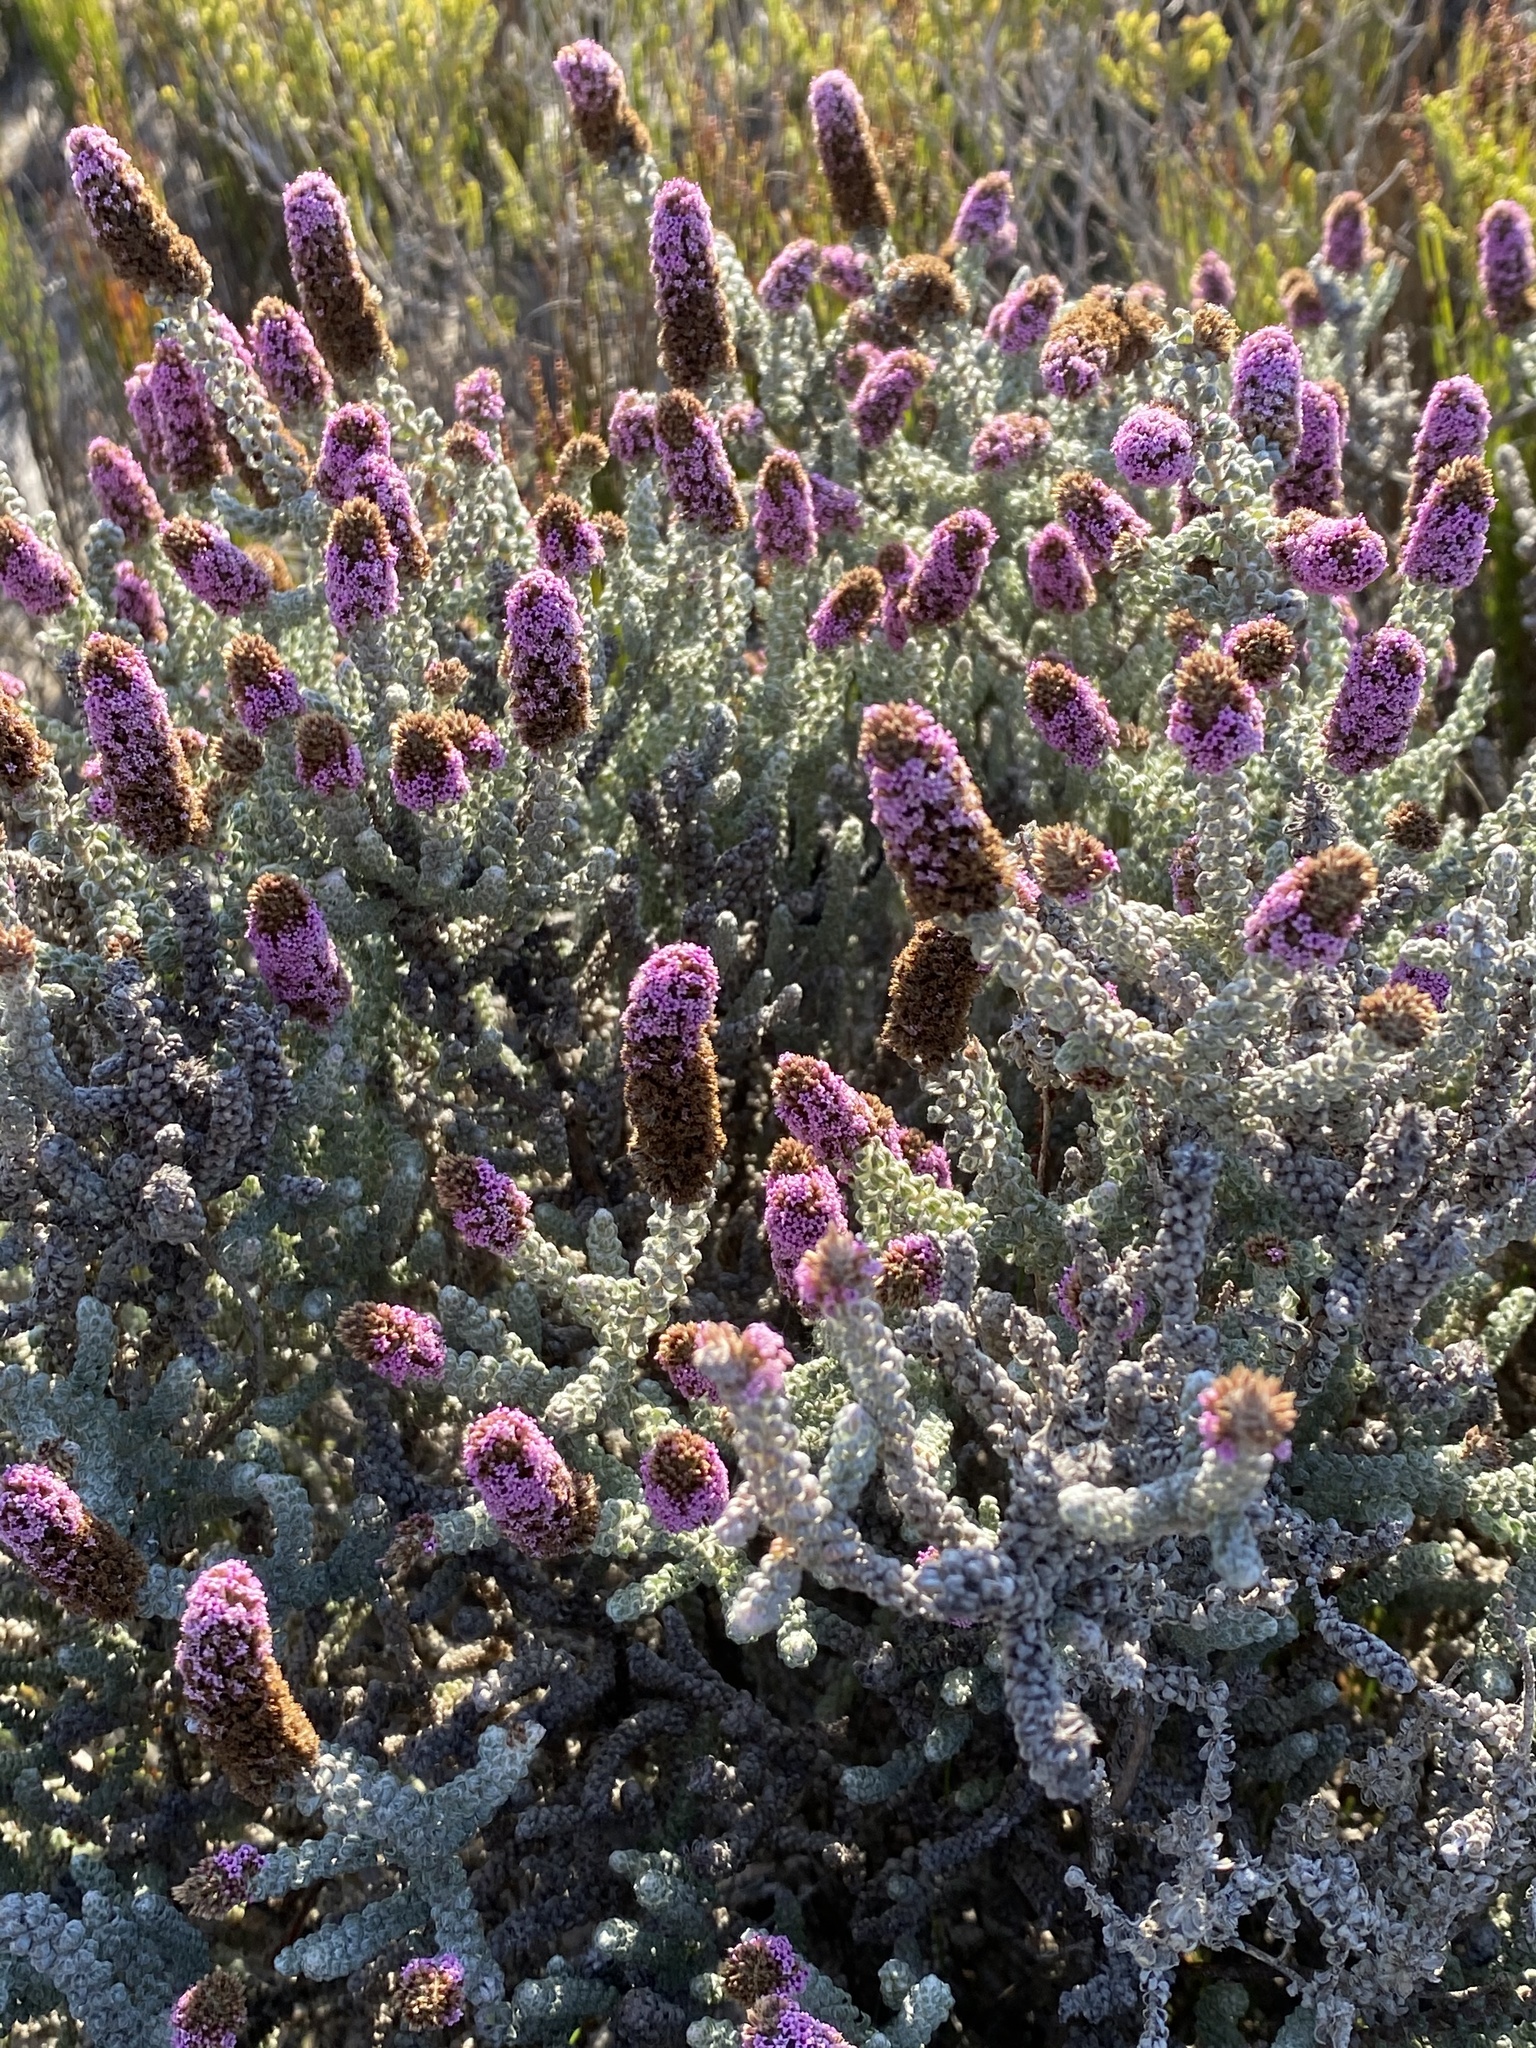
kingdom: Plantae
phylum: Tracheophyta
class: Magnoliopsida
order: Asterales
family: Asteraceae
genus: Stoebe
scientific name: Stoebe muirii
